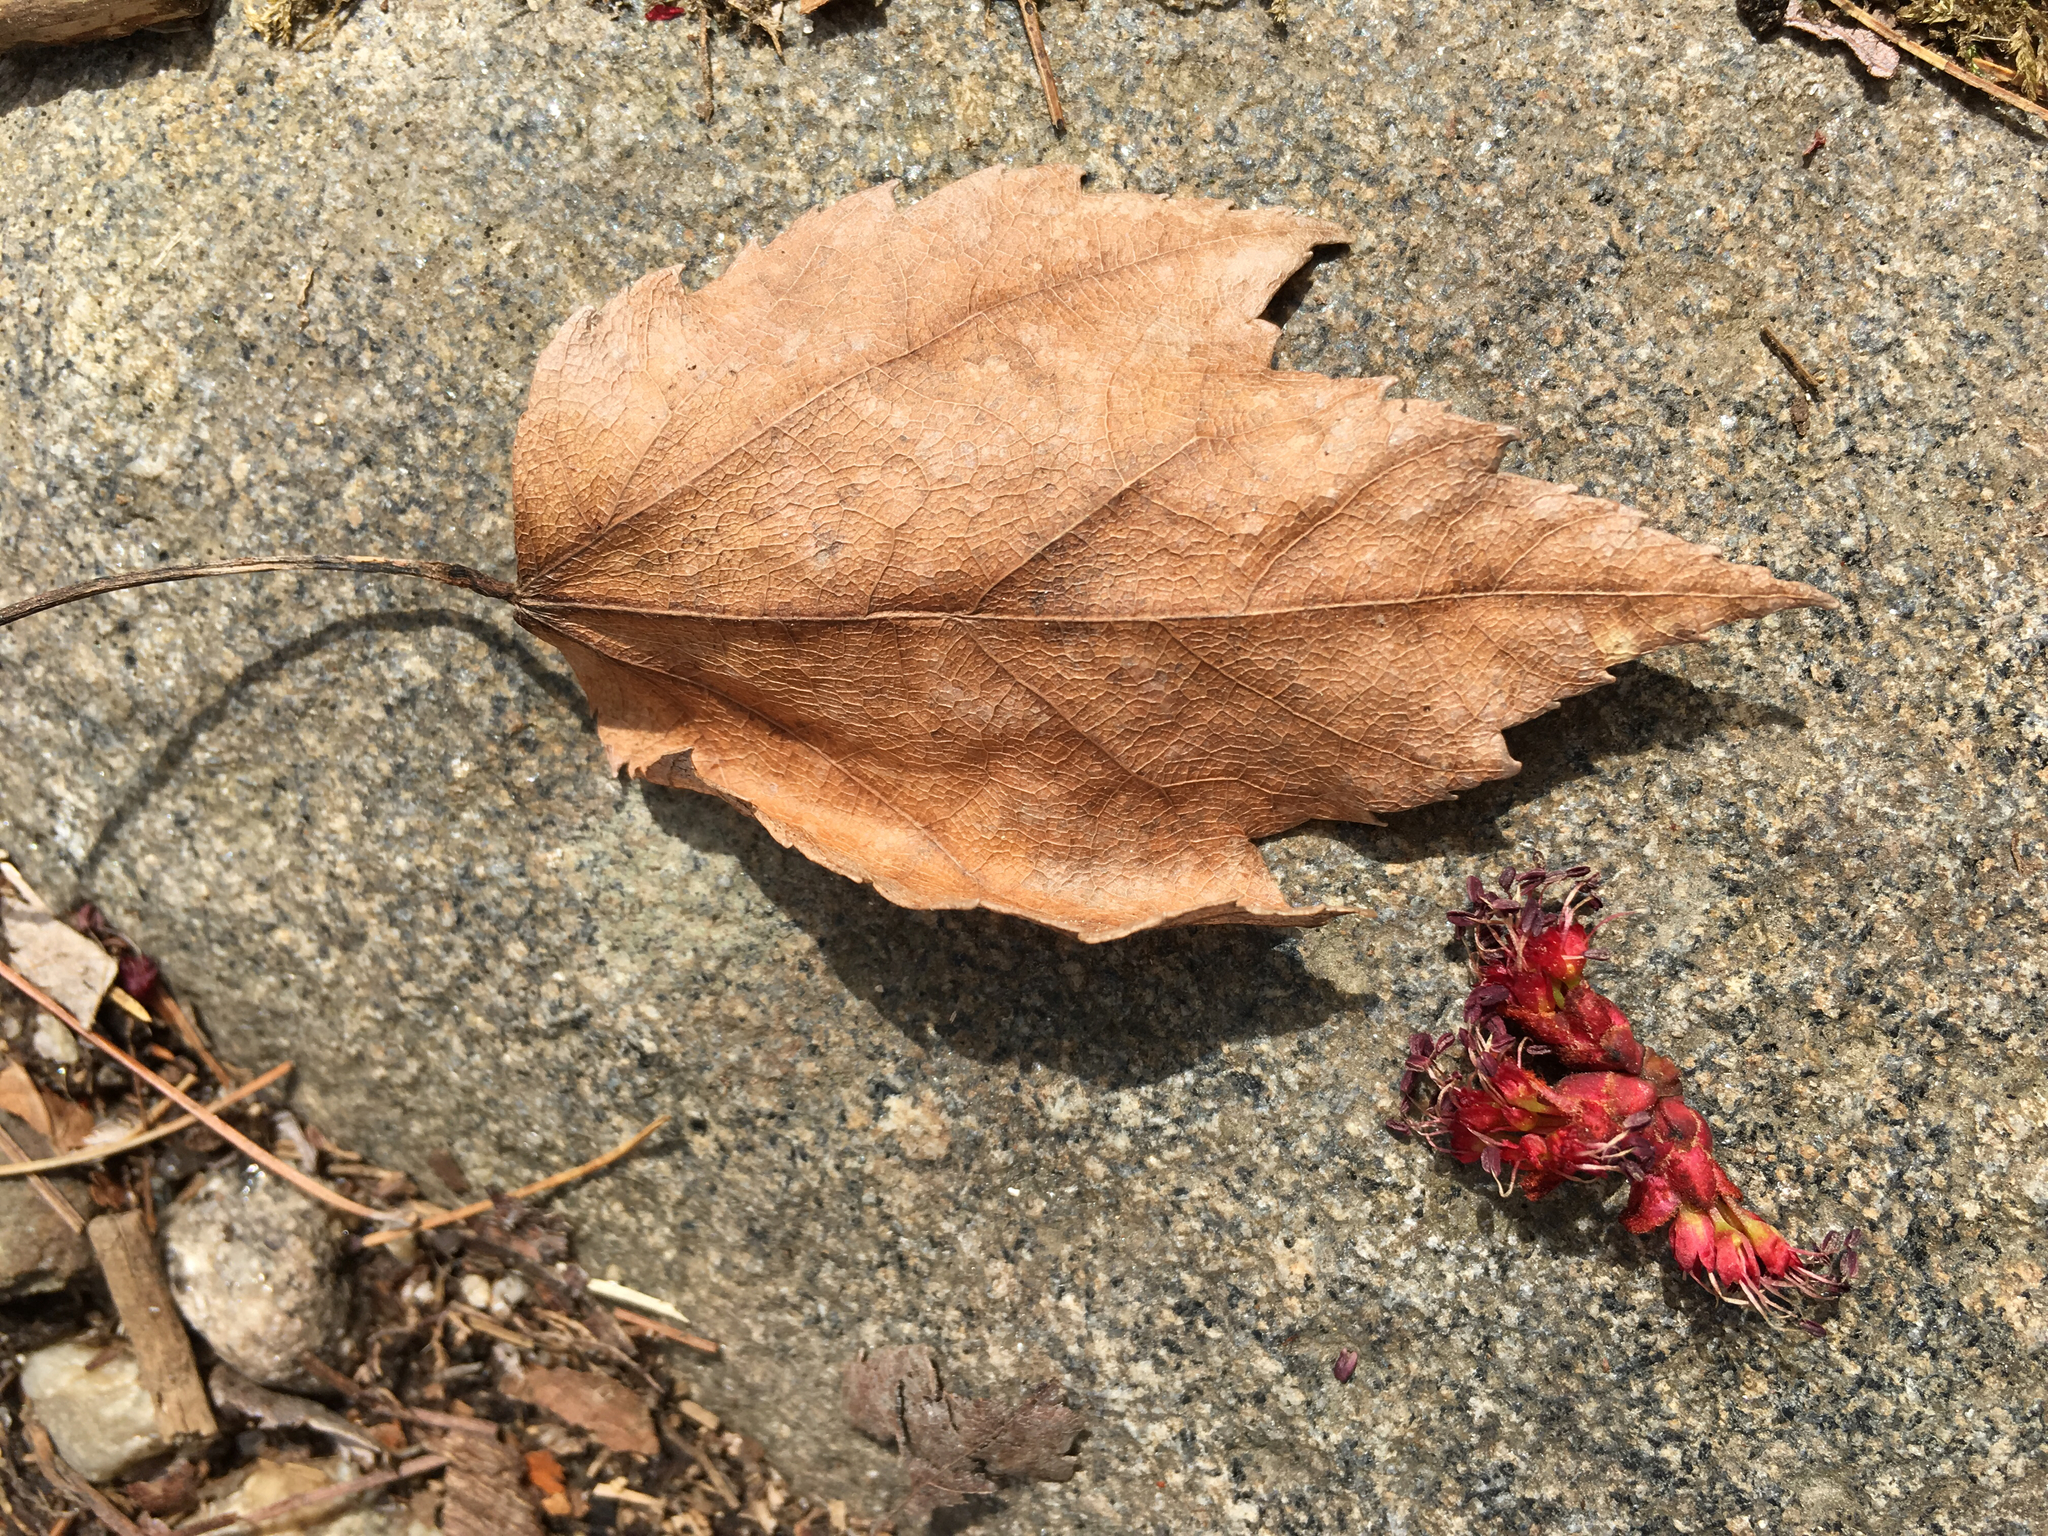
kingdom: Plantae
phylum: Tracheophyta
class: Magnoliopsida
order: Sapindales
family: Sapindaceae
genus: Acer
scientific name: Acer rubrum
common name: Red maple
